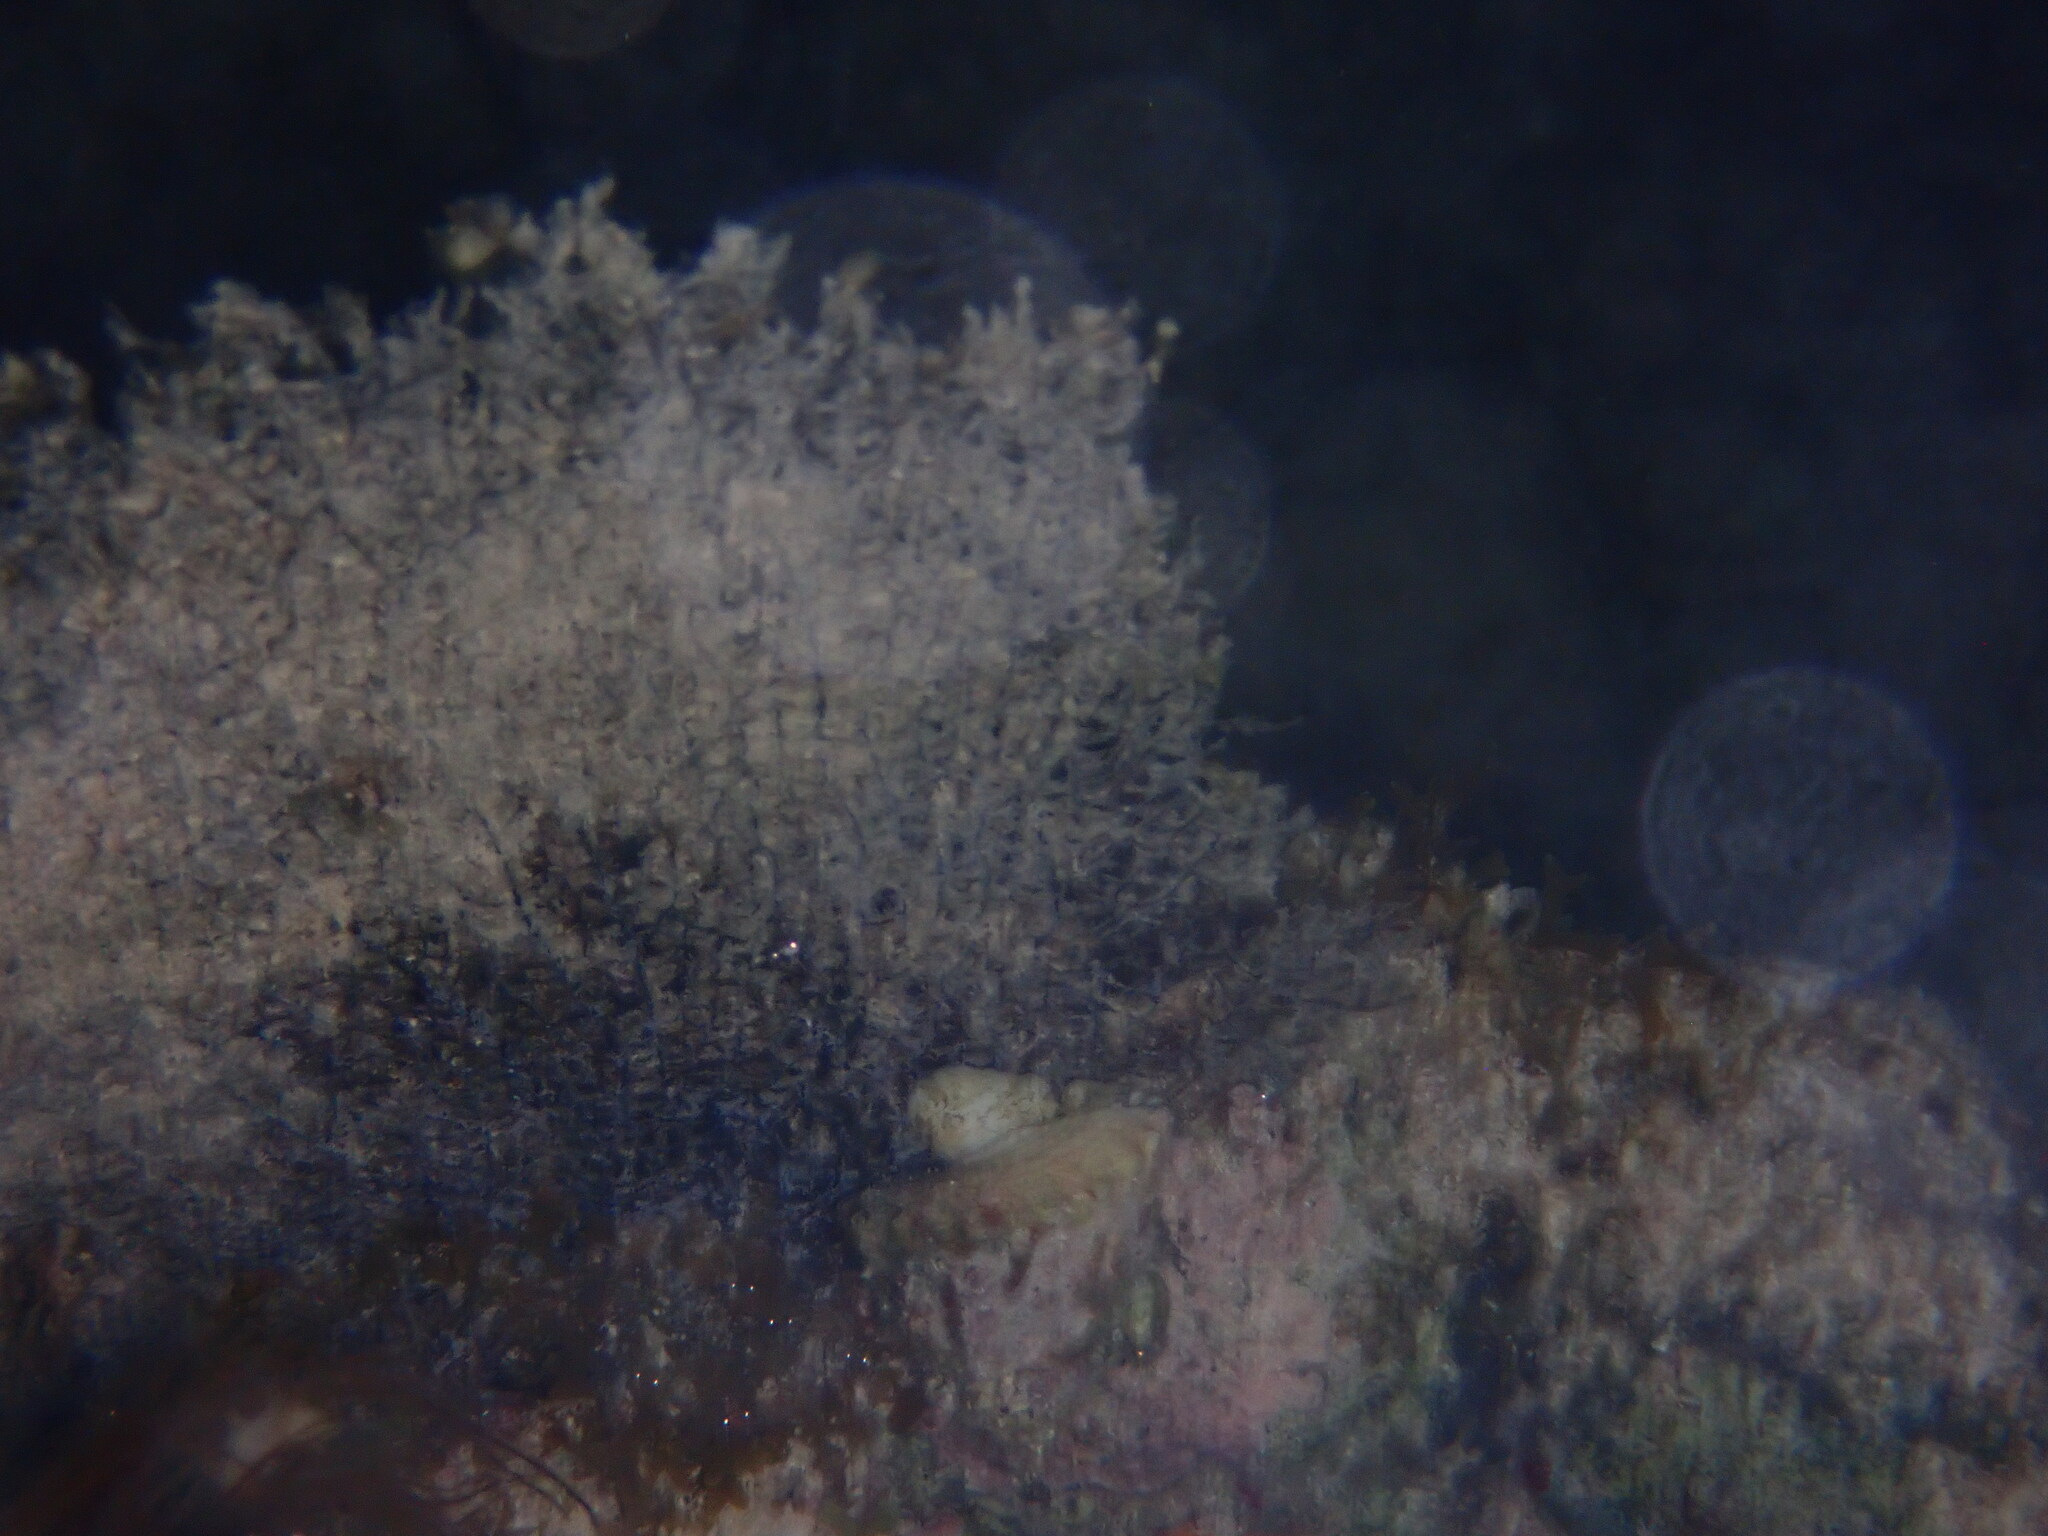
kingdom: Animalia
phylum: Cnidaria
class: Anthozoa
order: Malacalcyonacea
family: Gorgoniidae
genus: Gorgonia
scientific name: Gorgonia ventalina
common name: Common sea fan
